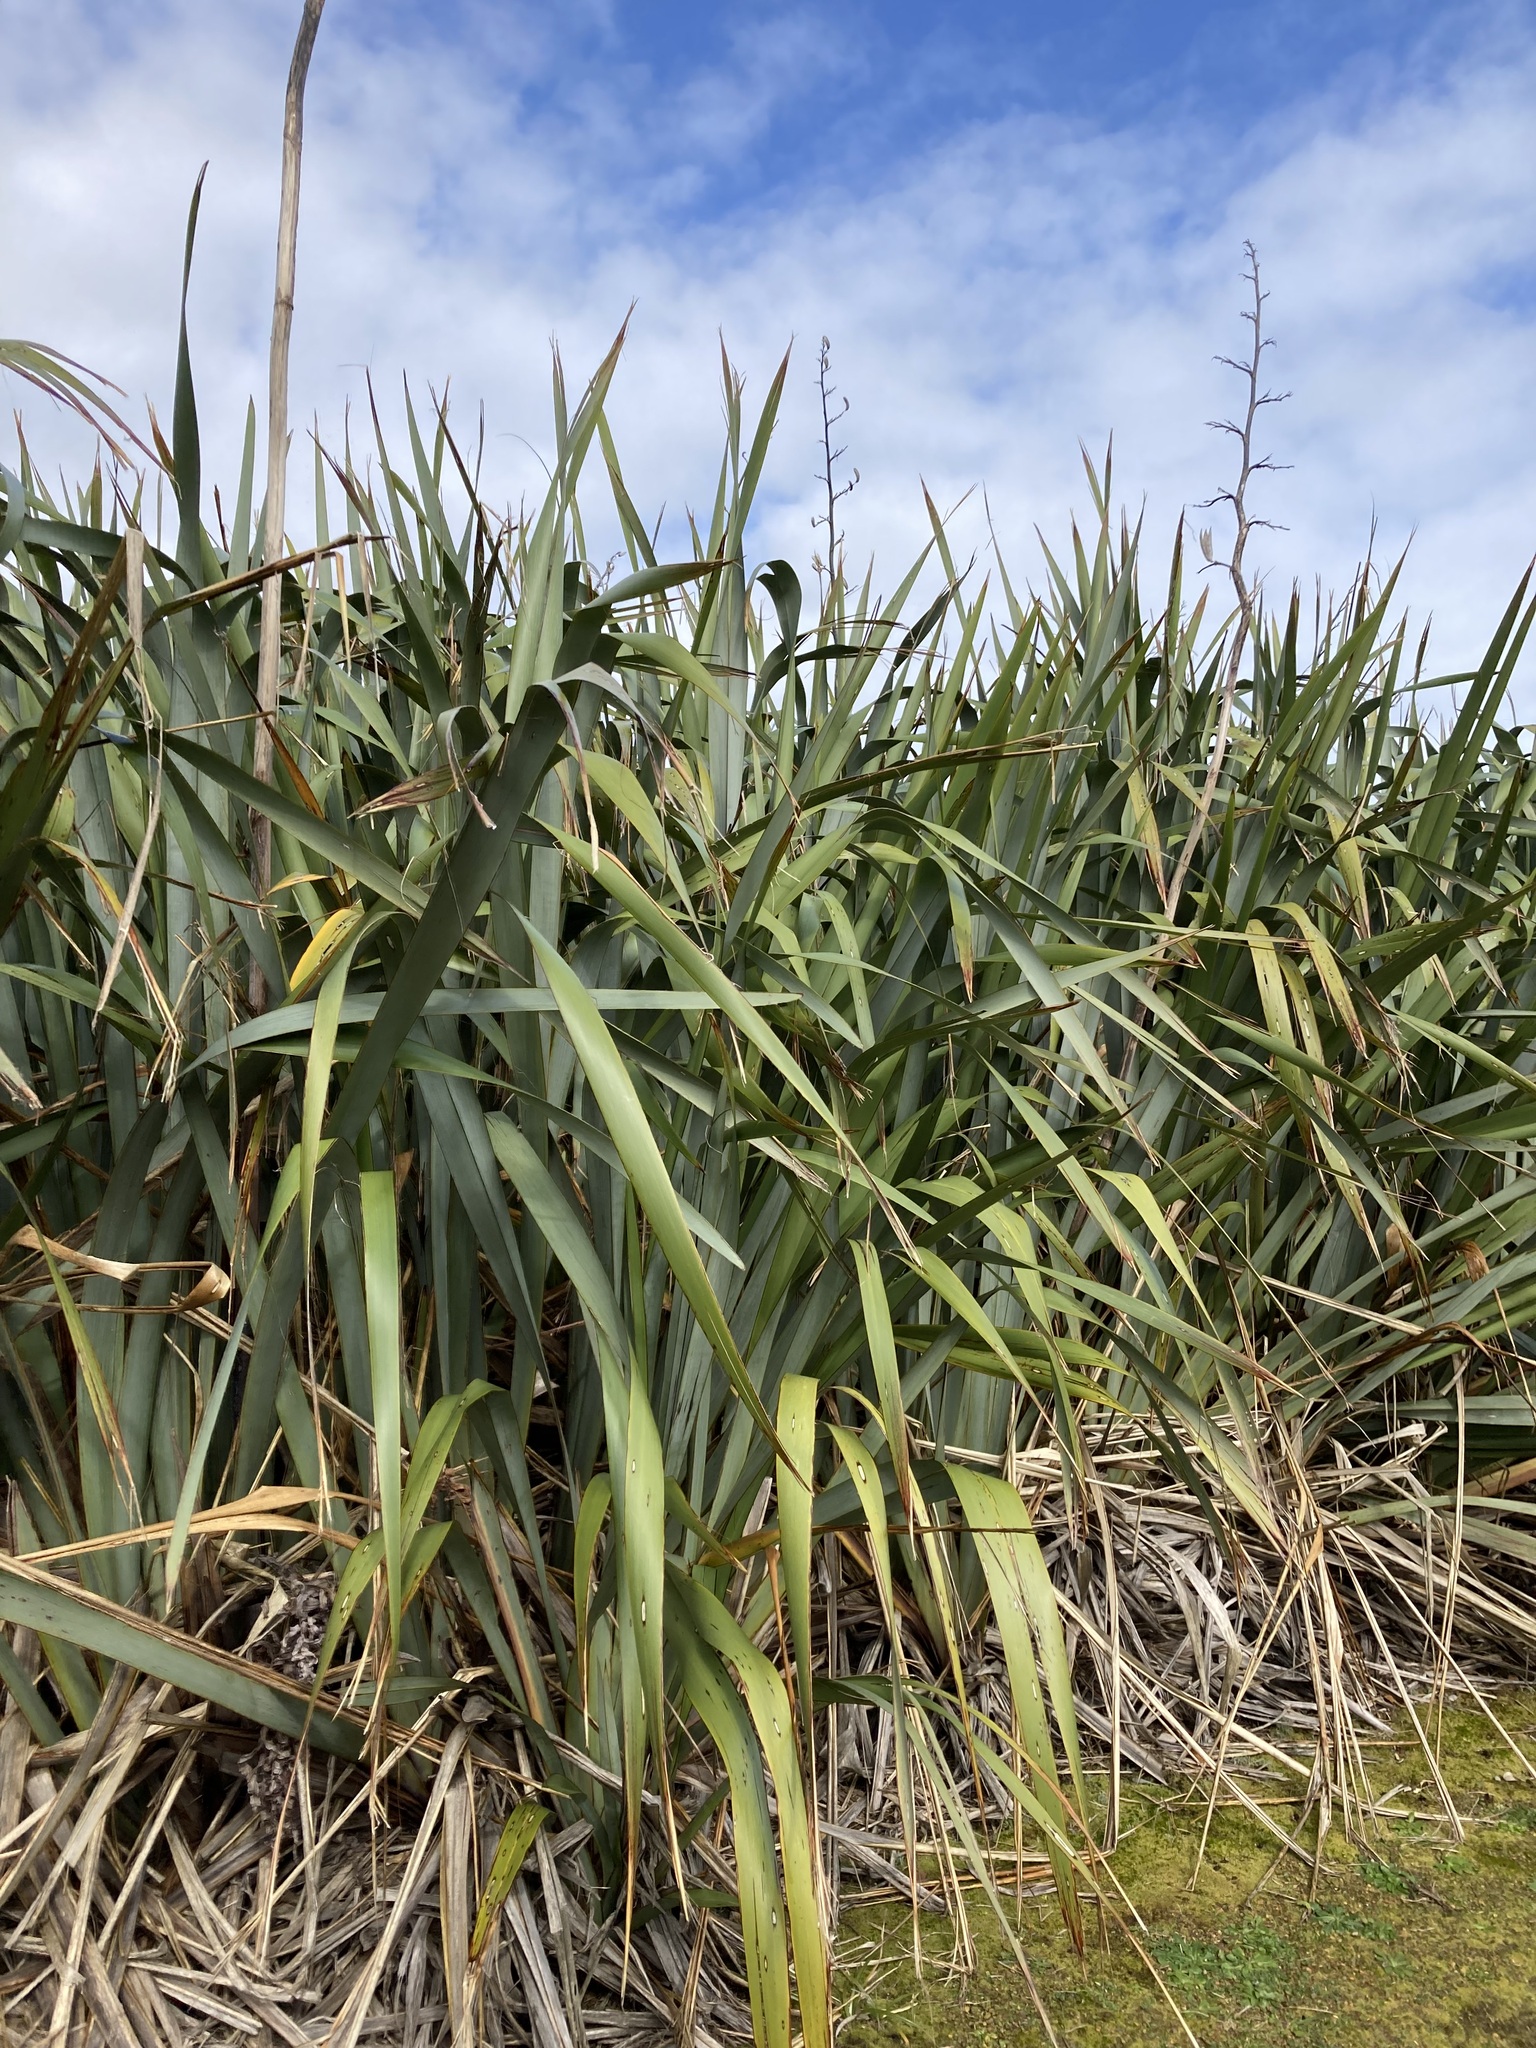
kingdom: Plantae
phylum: Tracheophyta
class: Liliopsida
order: Asparagales
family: Asphodelaceae
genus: Phormium
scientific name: Phormium tenax
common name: New zealand flax
